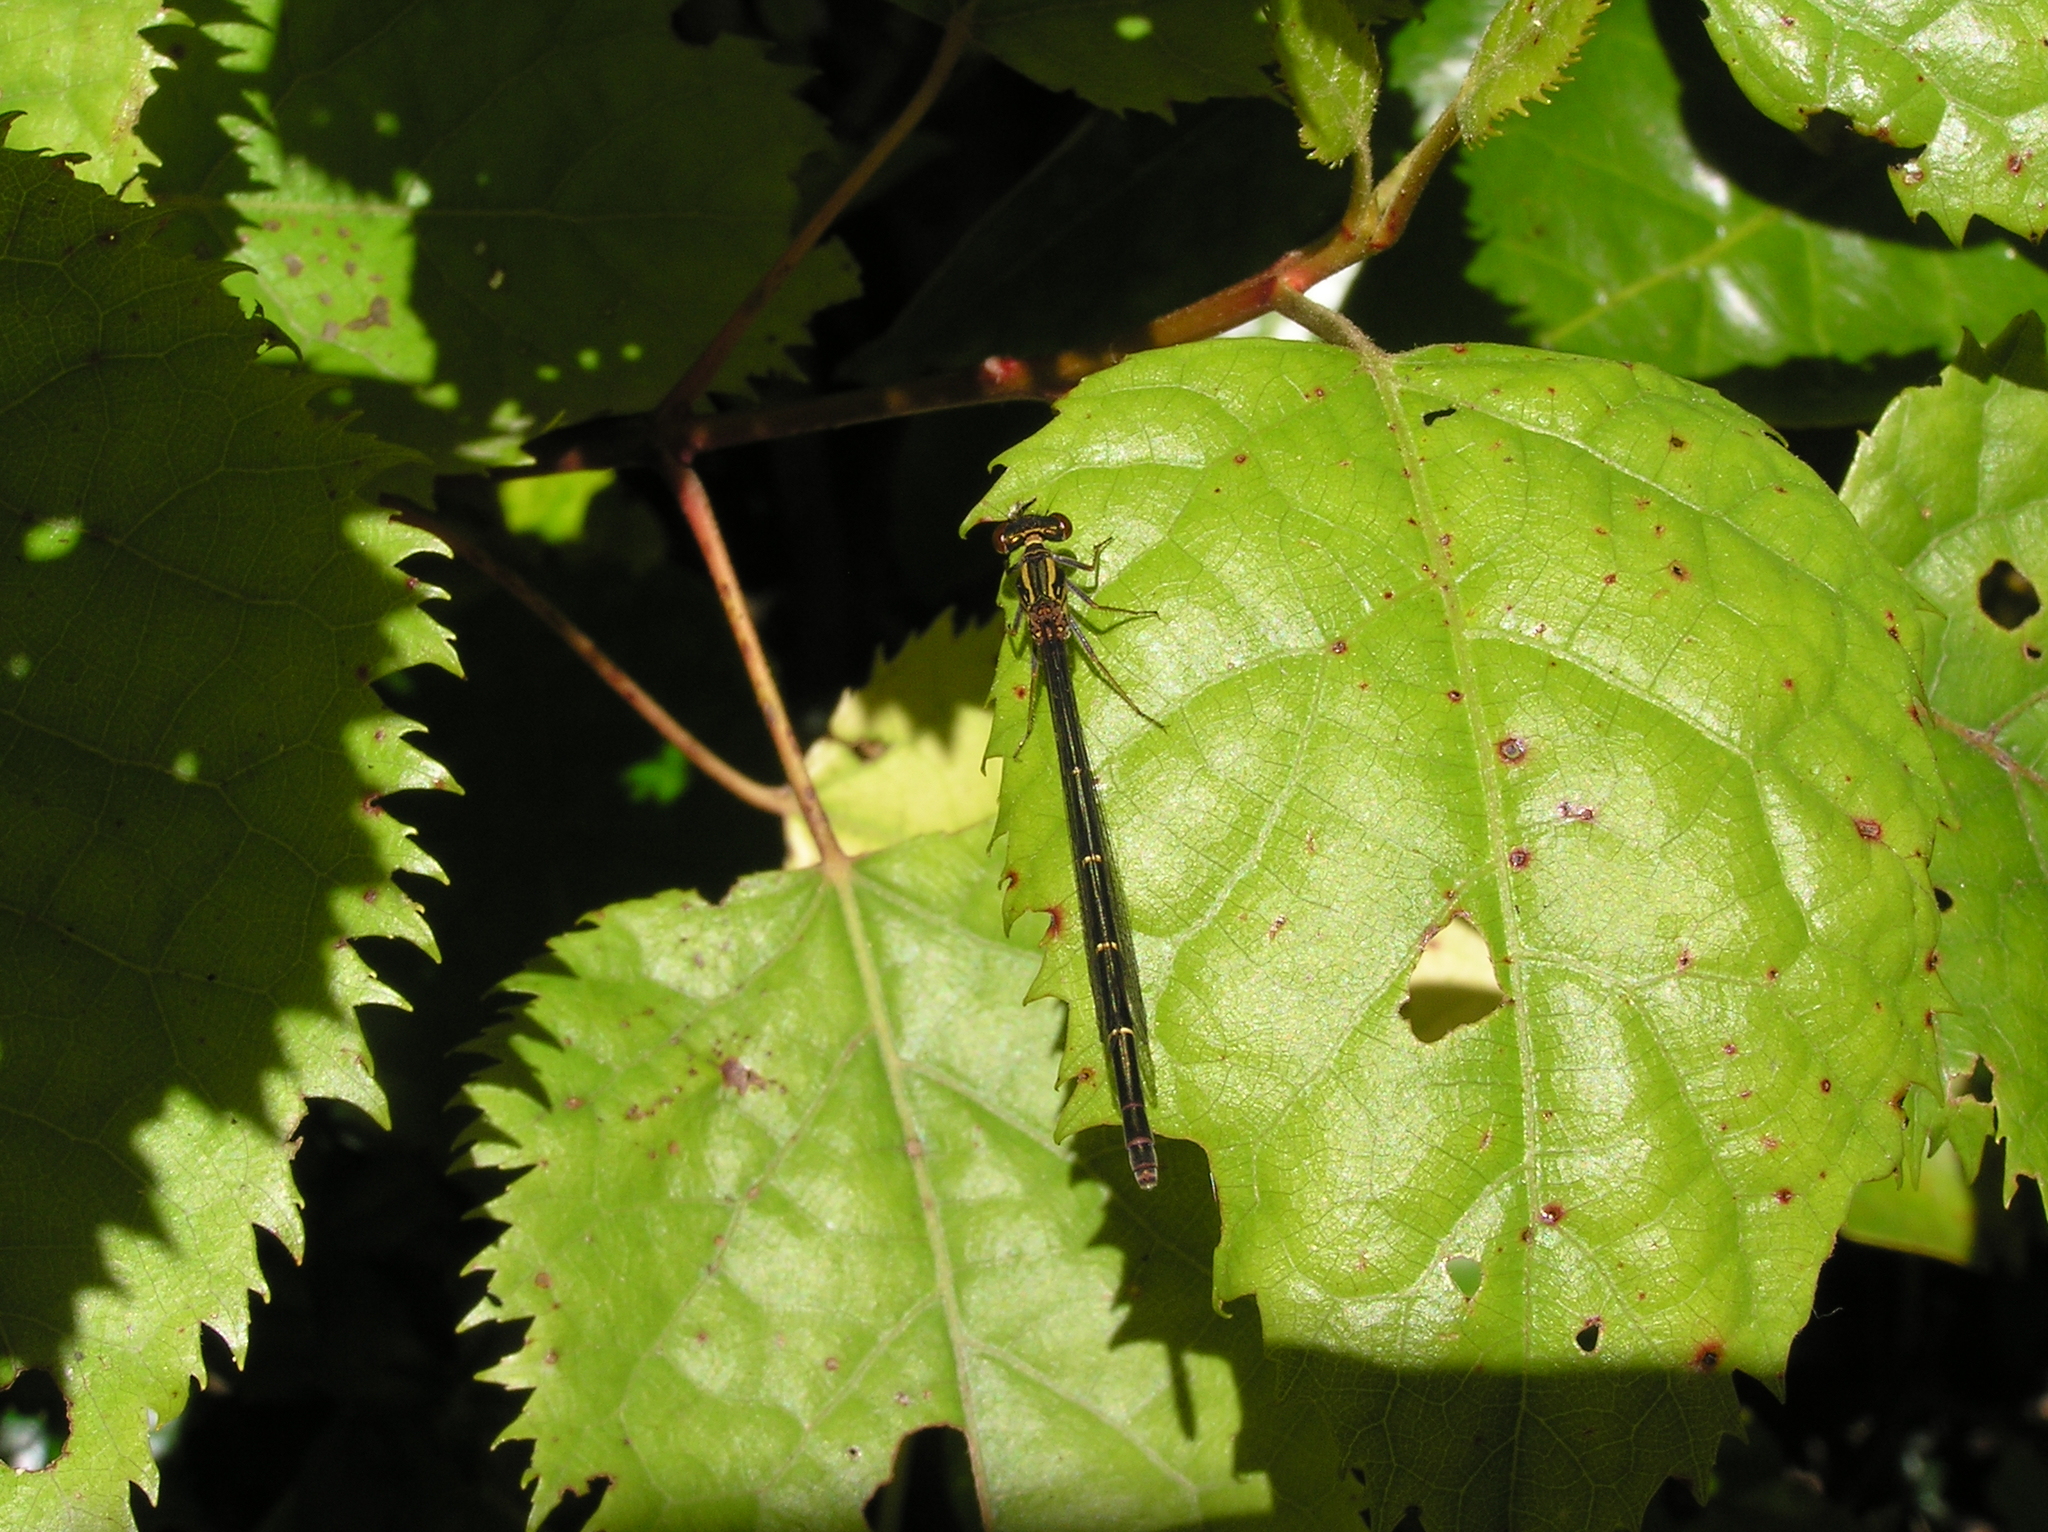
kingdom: Animalia
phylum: Arthropoda
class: Insecta
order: Odonata
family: Coenagrionidae
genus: Xanthocnemis
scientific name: Xanthocnemis zealandica
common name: Common redcoat damselfly
